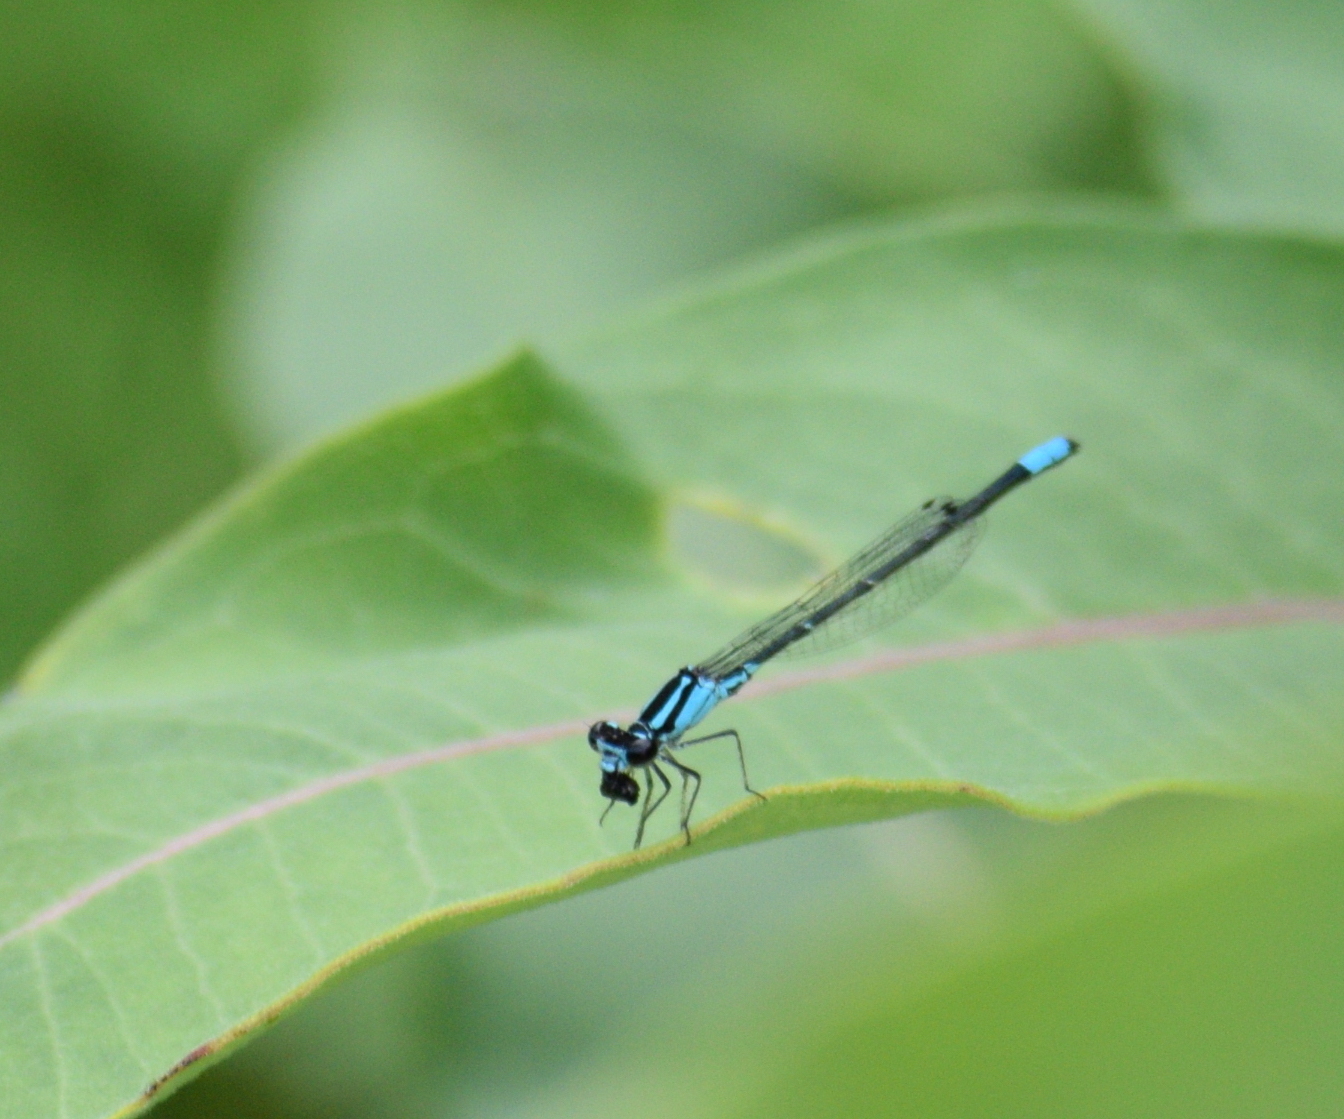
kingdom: Animalia
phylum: Arthropoda
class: Insecta
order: Odonata
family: Coenagrionidae
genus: Enallagma
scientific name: Enallagma geminatum
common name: Skimming bluet
